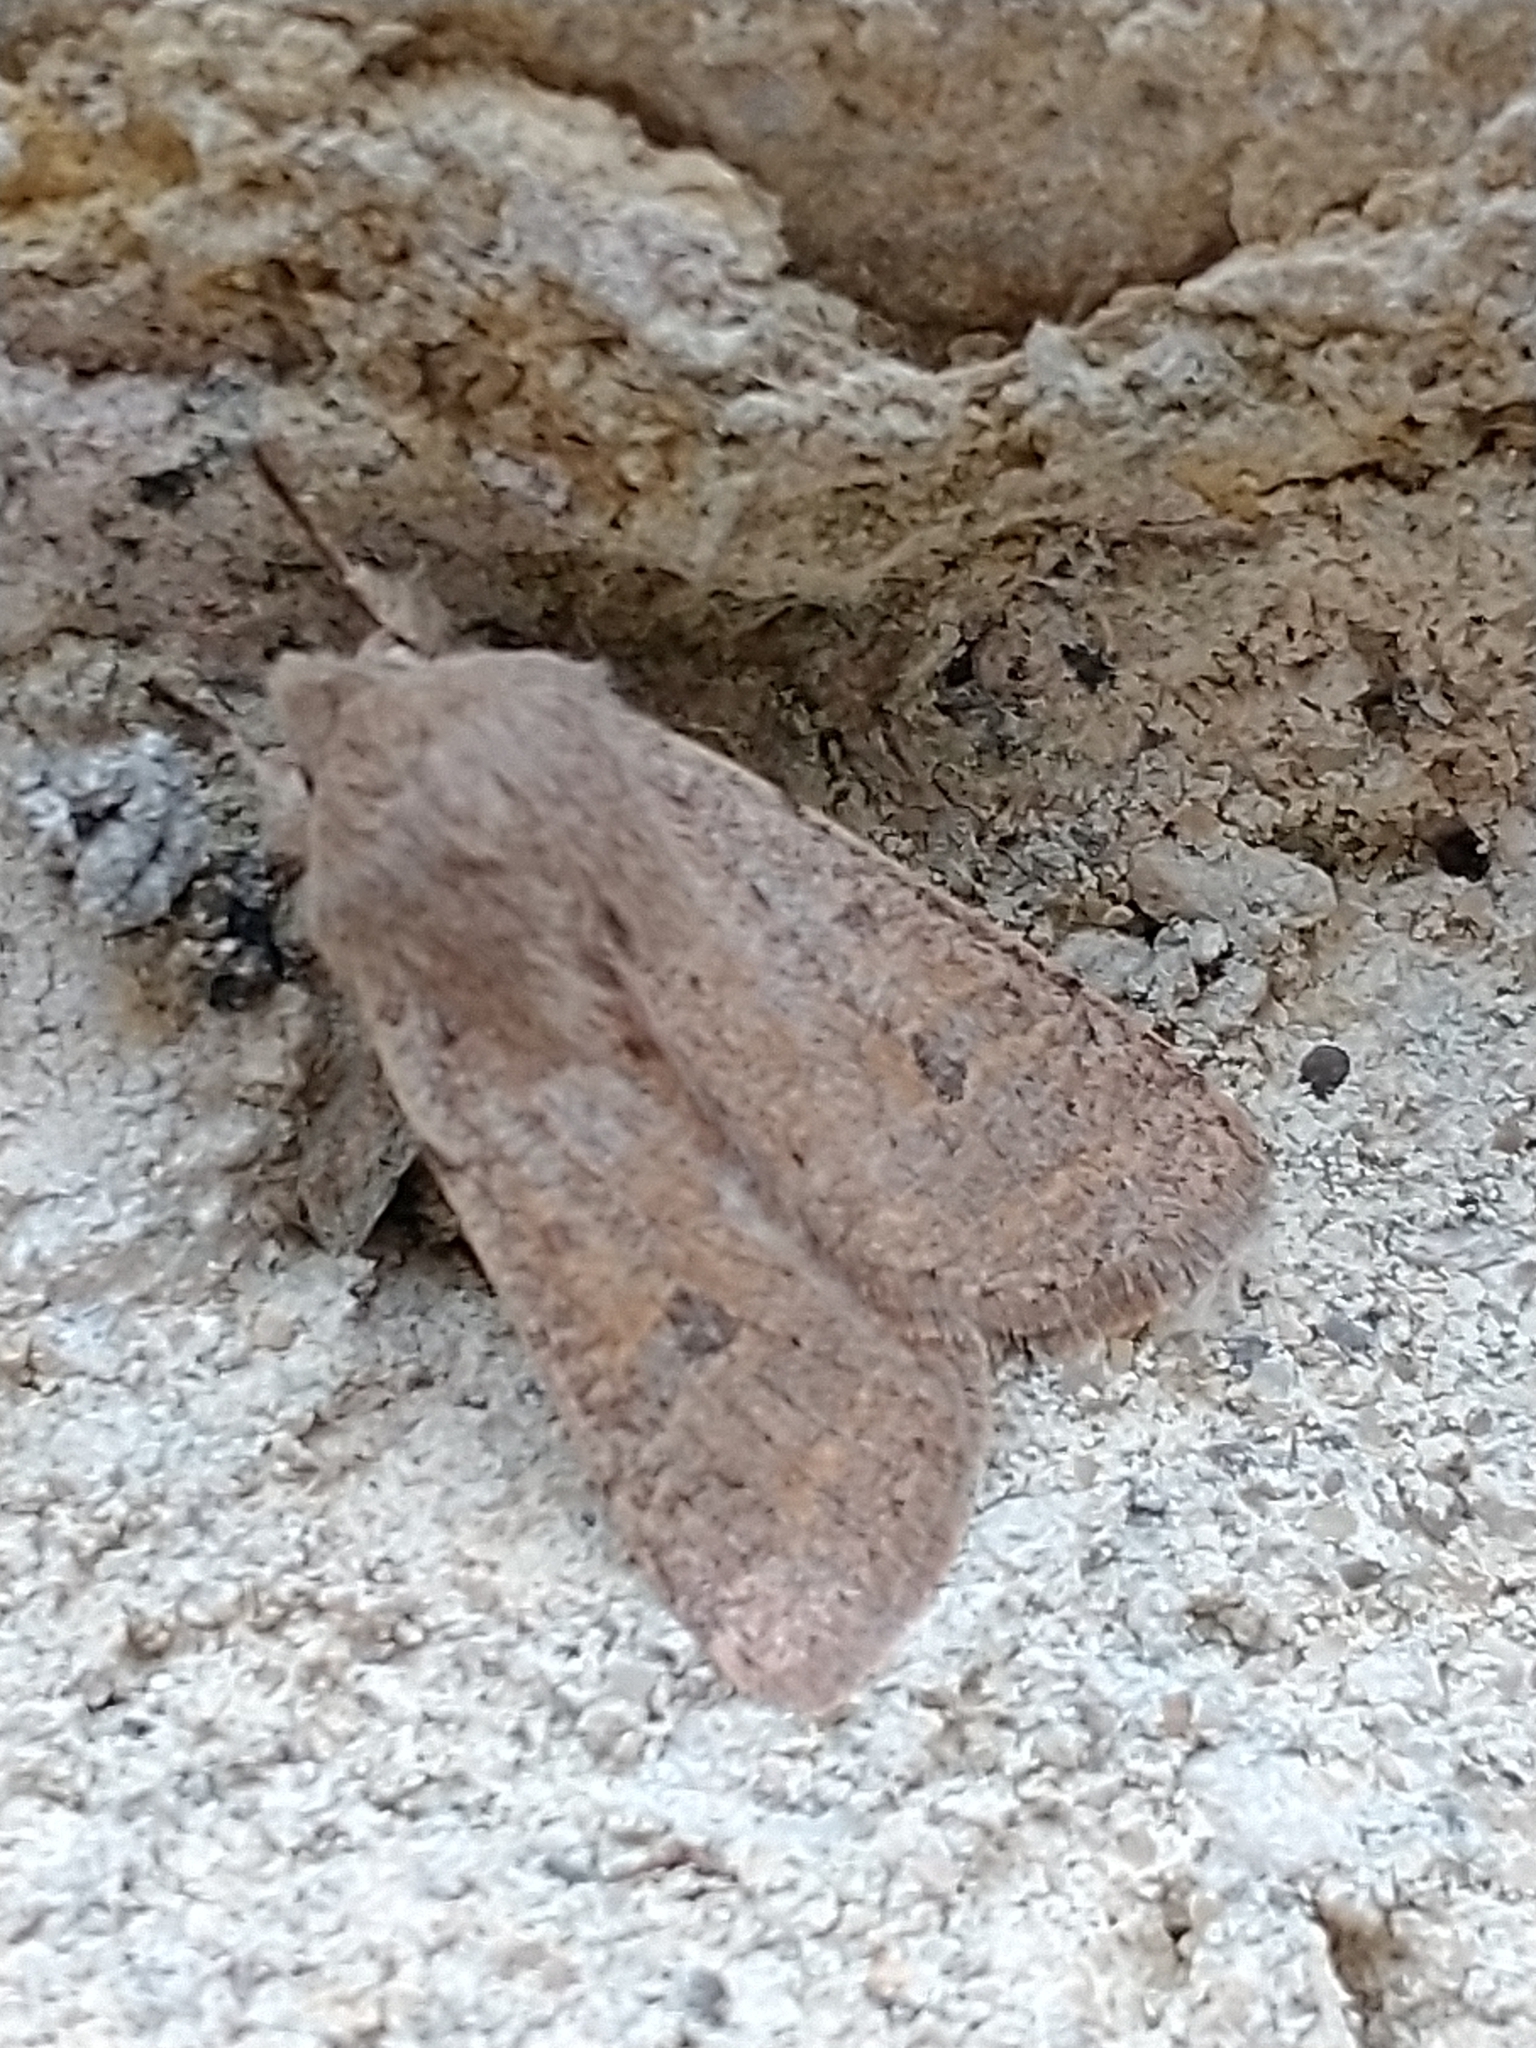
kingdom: Animalia
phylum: Arthropoda
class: Insecta
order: Lepidoptera
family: Noctuidae
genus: Orthosia
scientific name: Orthosia cruda
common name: Small quaker
